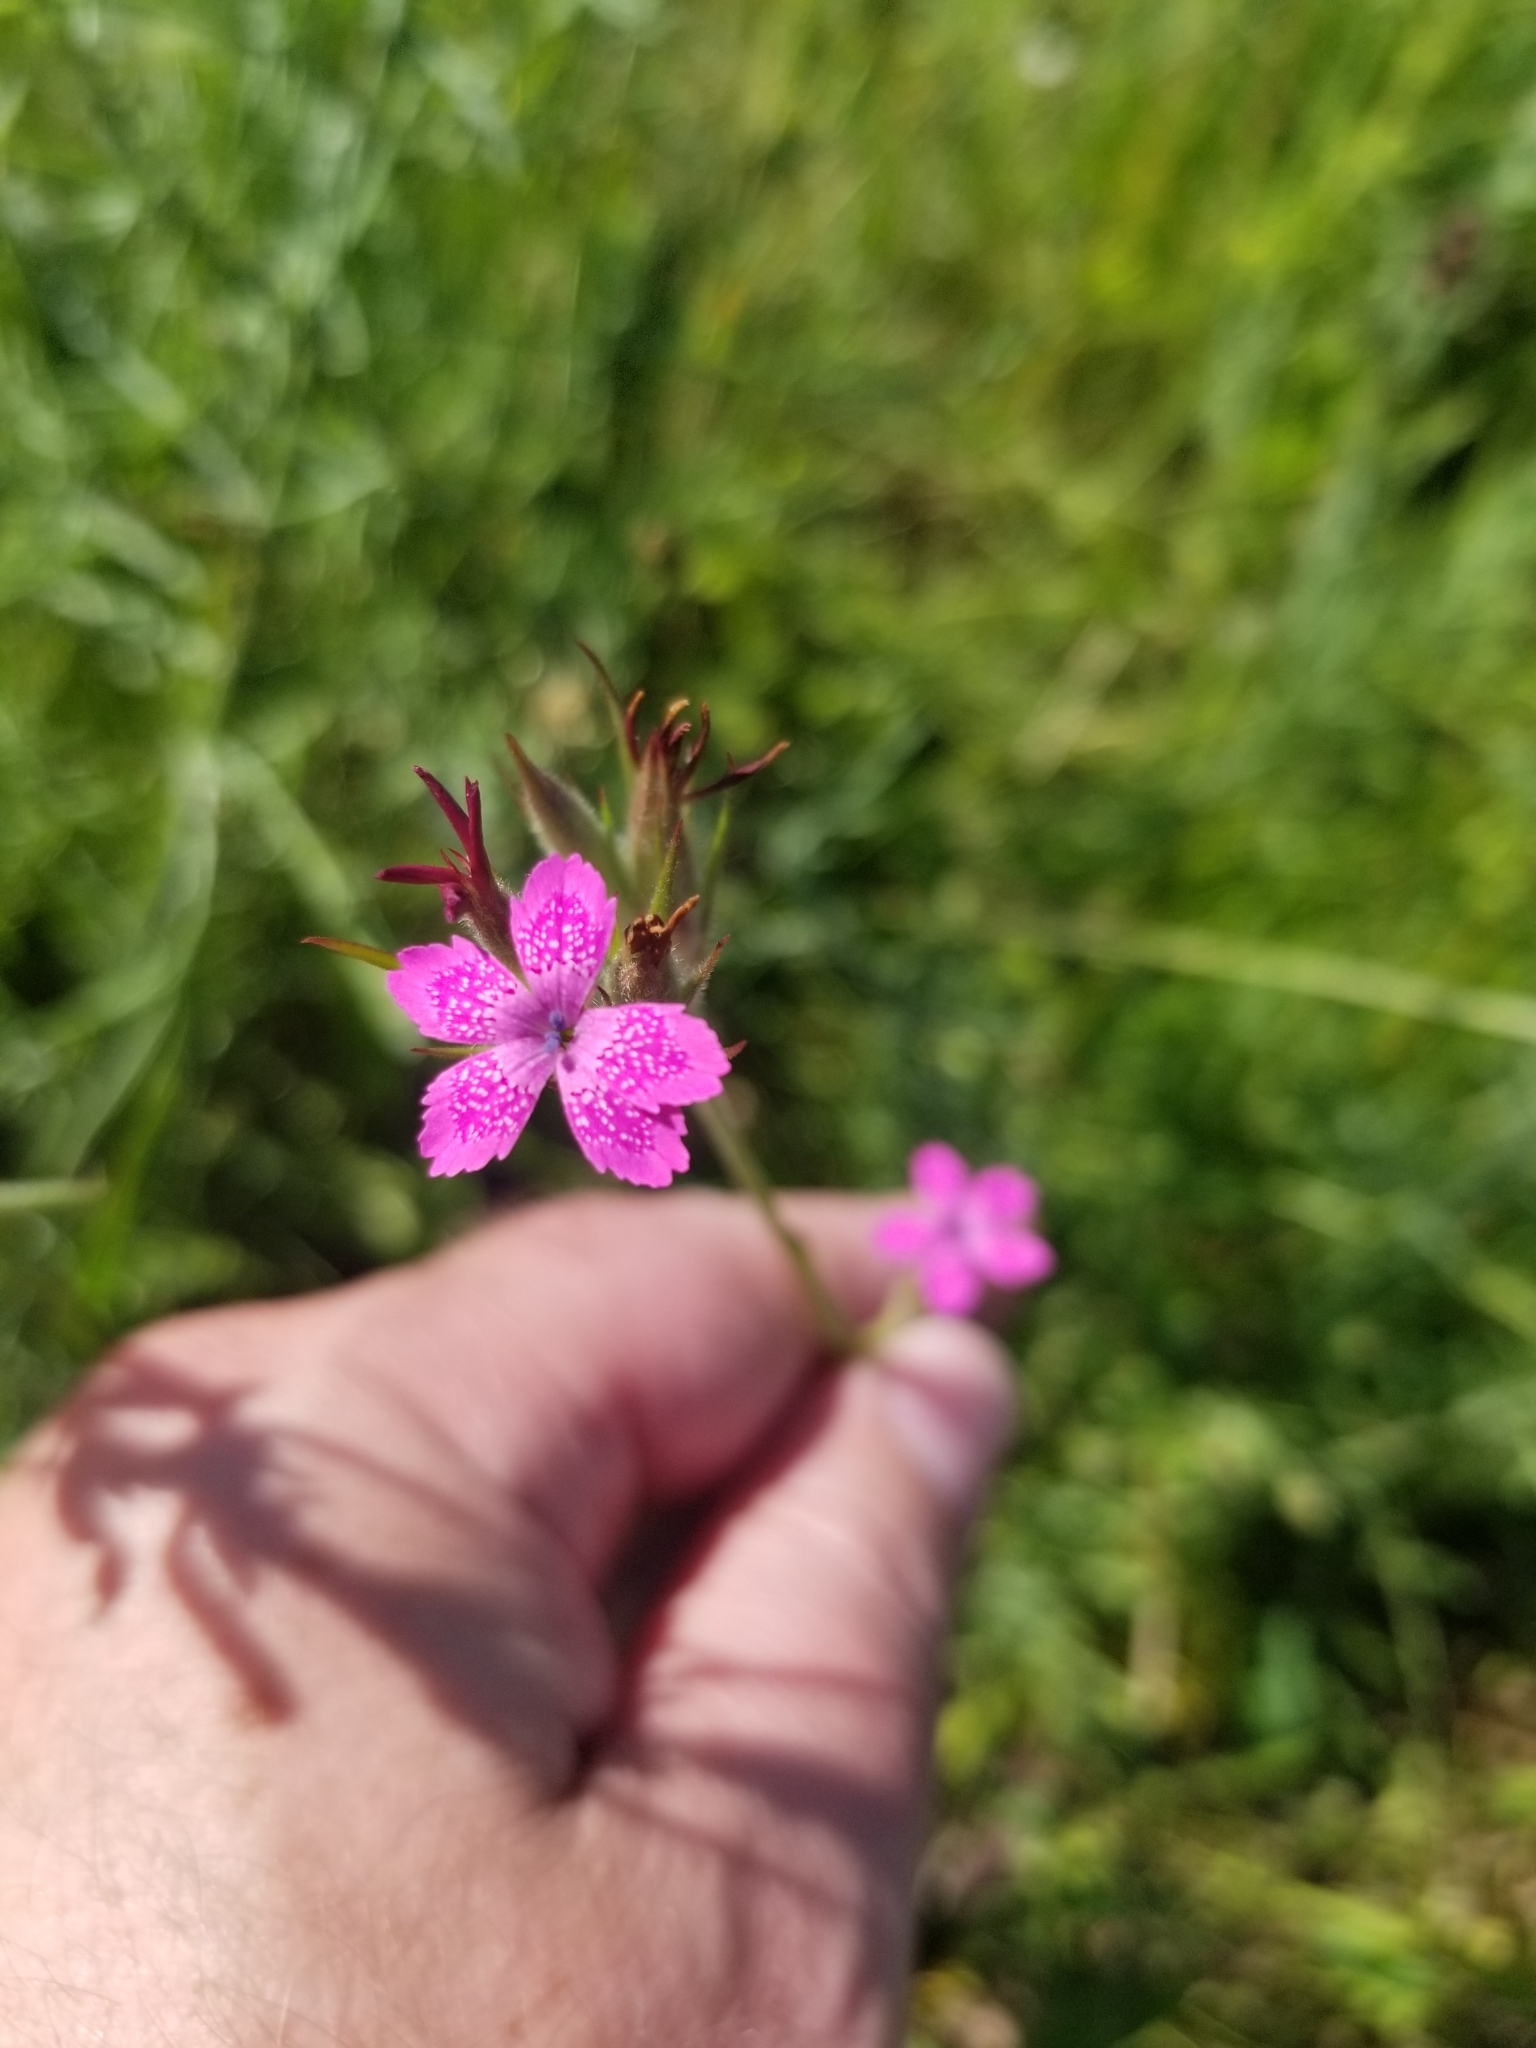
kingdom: Plantae
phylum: Tracheophyta
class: Magnoliopsida
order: Caryophyllales
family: Caryophyllaceae
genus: Dianthus
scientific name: Dianthus armeria
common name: Deptford pink
